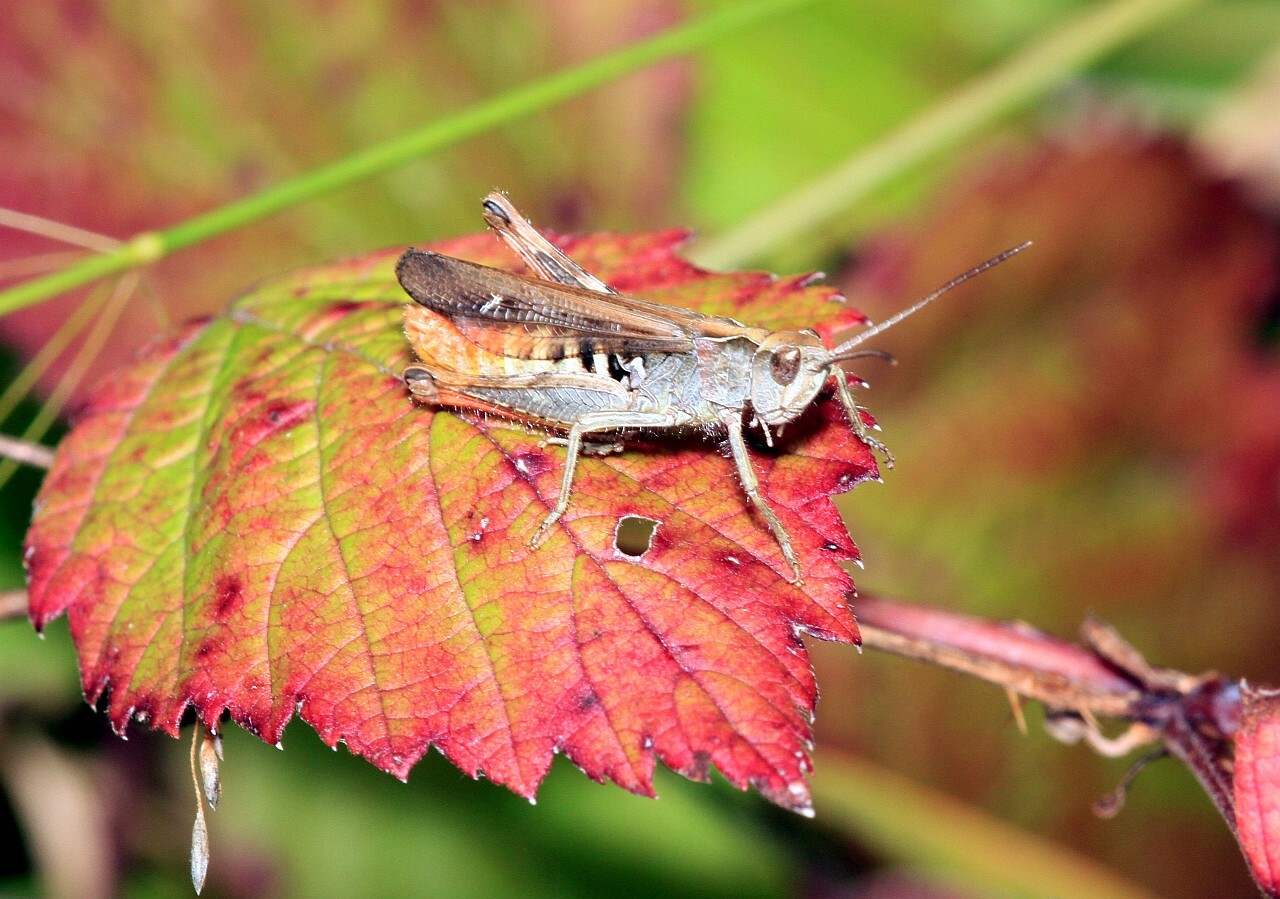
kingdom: Animalia
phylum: Arthropoda
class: Insecta
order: Orthoptera
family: Acrididae
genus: Chorthippus
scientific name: Chorthippus biguttulus
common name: Bow-winged grasshopper
